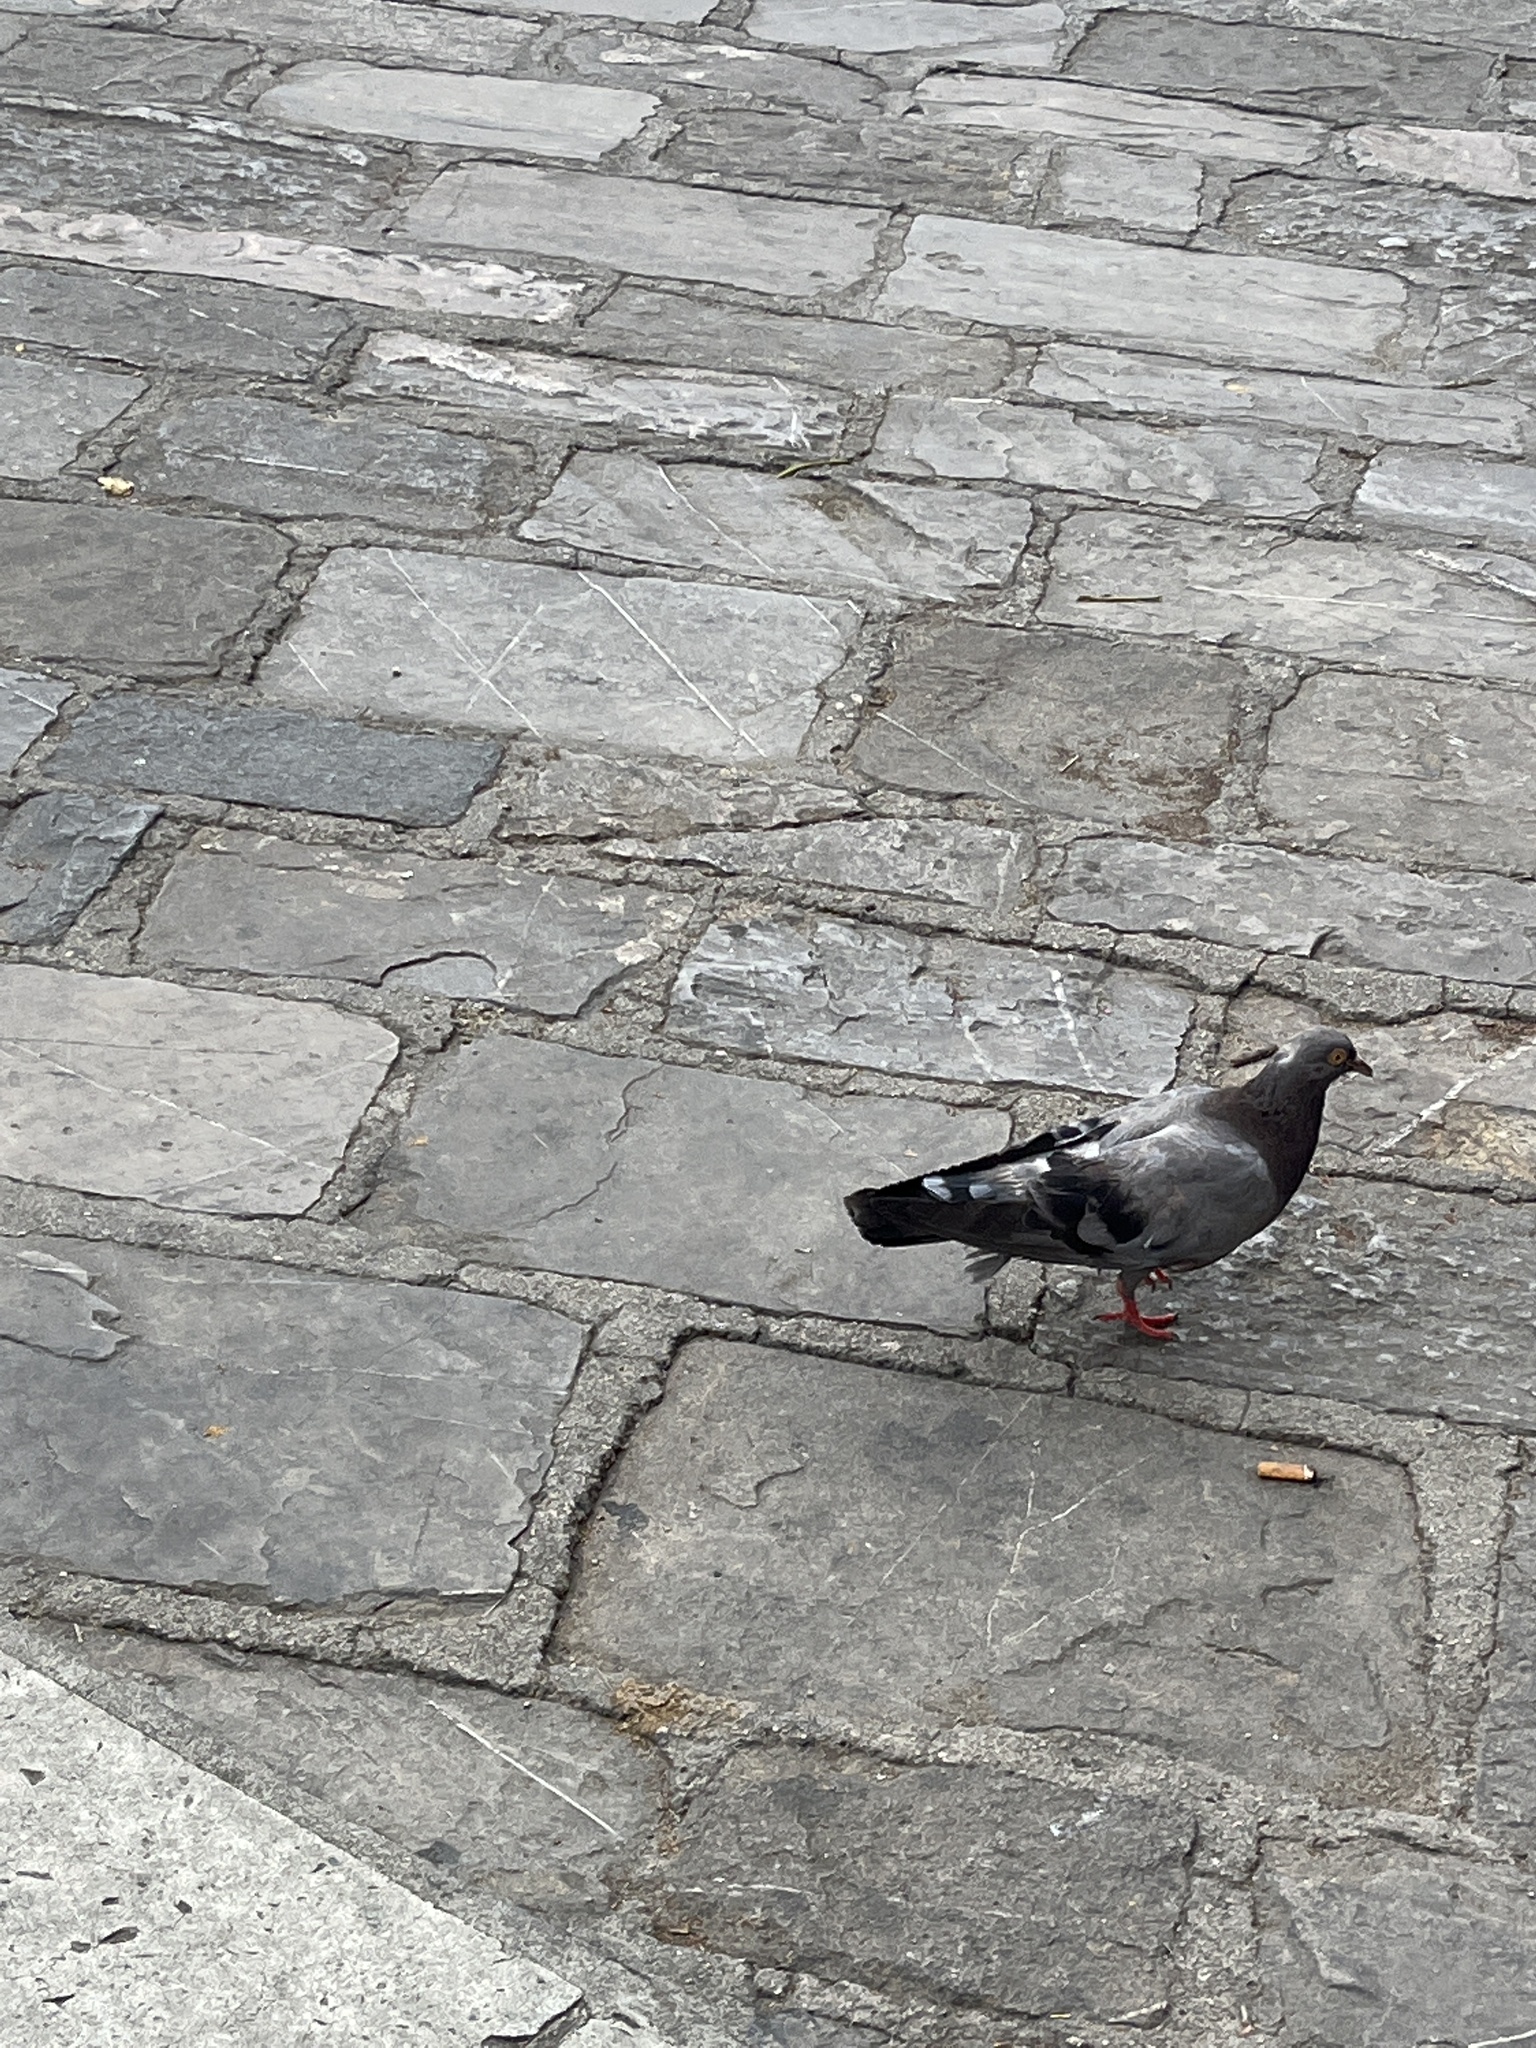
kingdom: Animalia
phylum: Chordata
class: Aves
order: Columbiformes
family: Columbidae
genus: Columba
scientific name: Columba livia
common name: Rock pigeon
